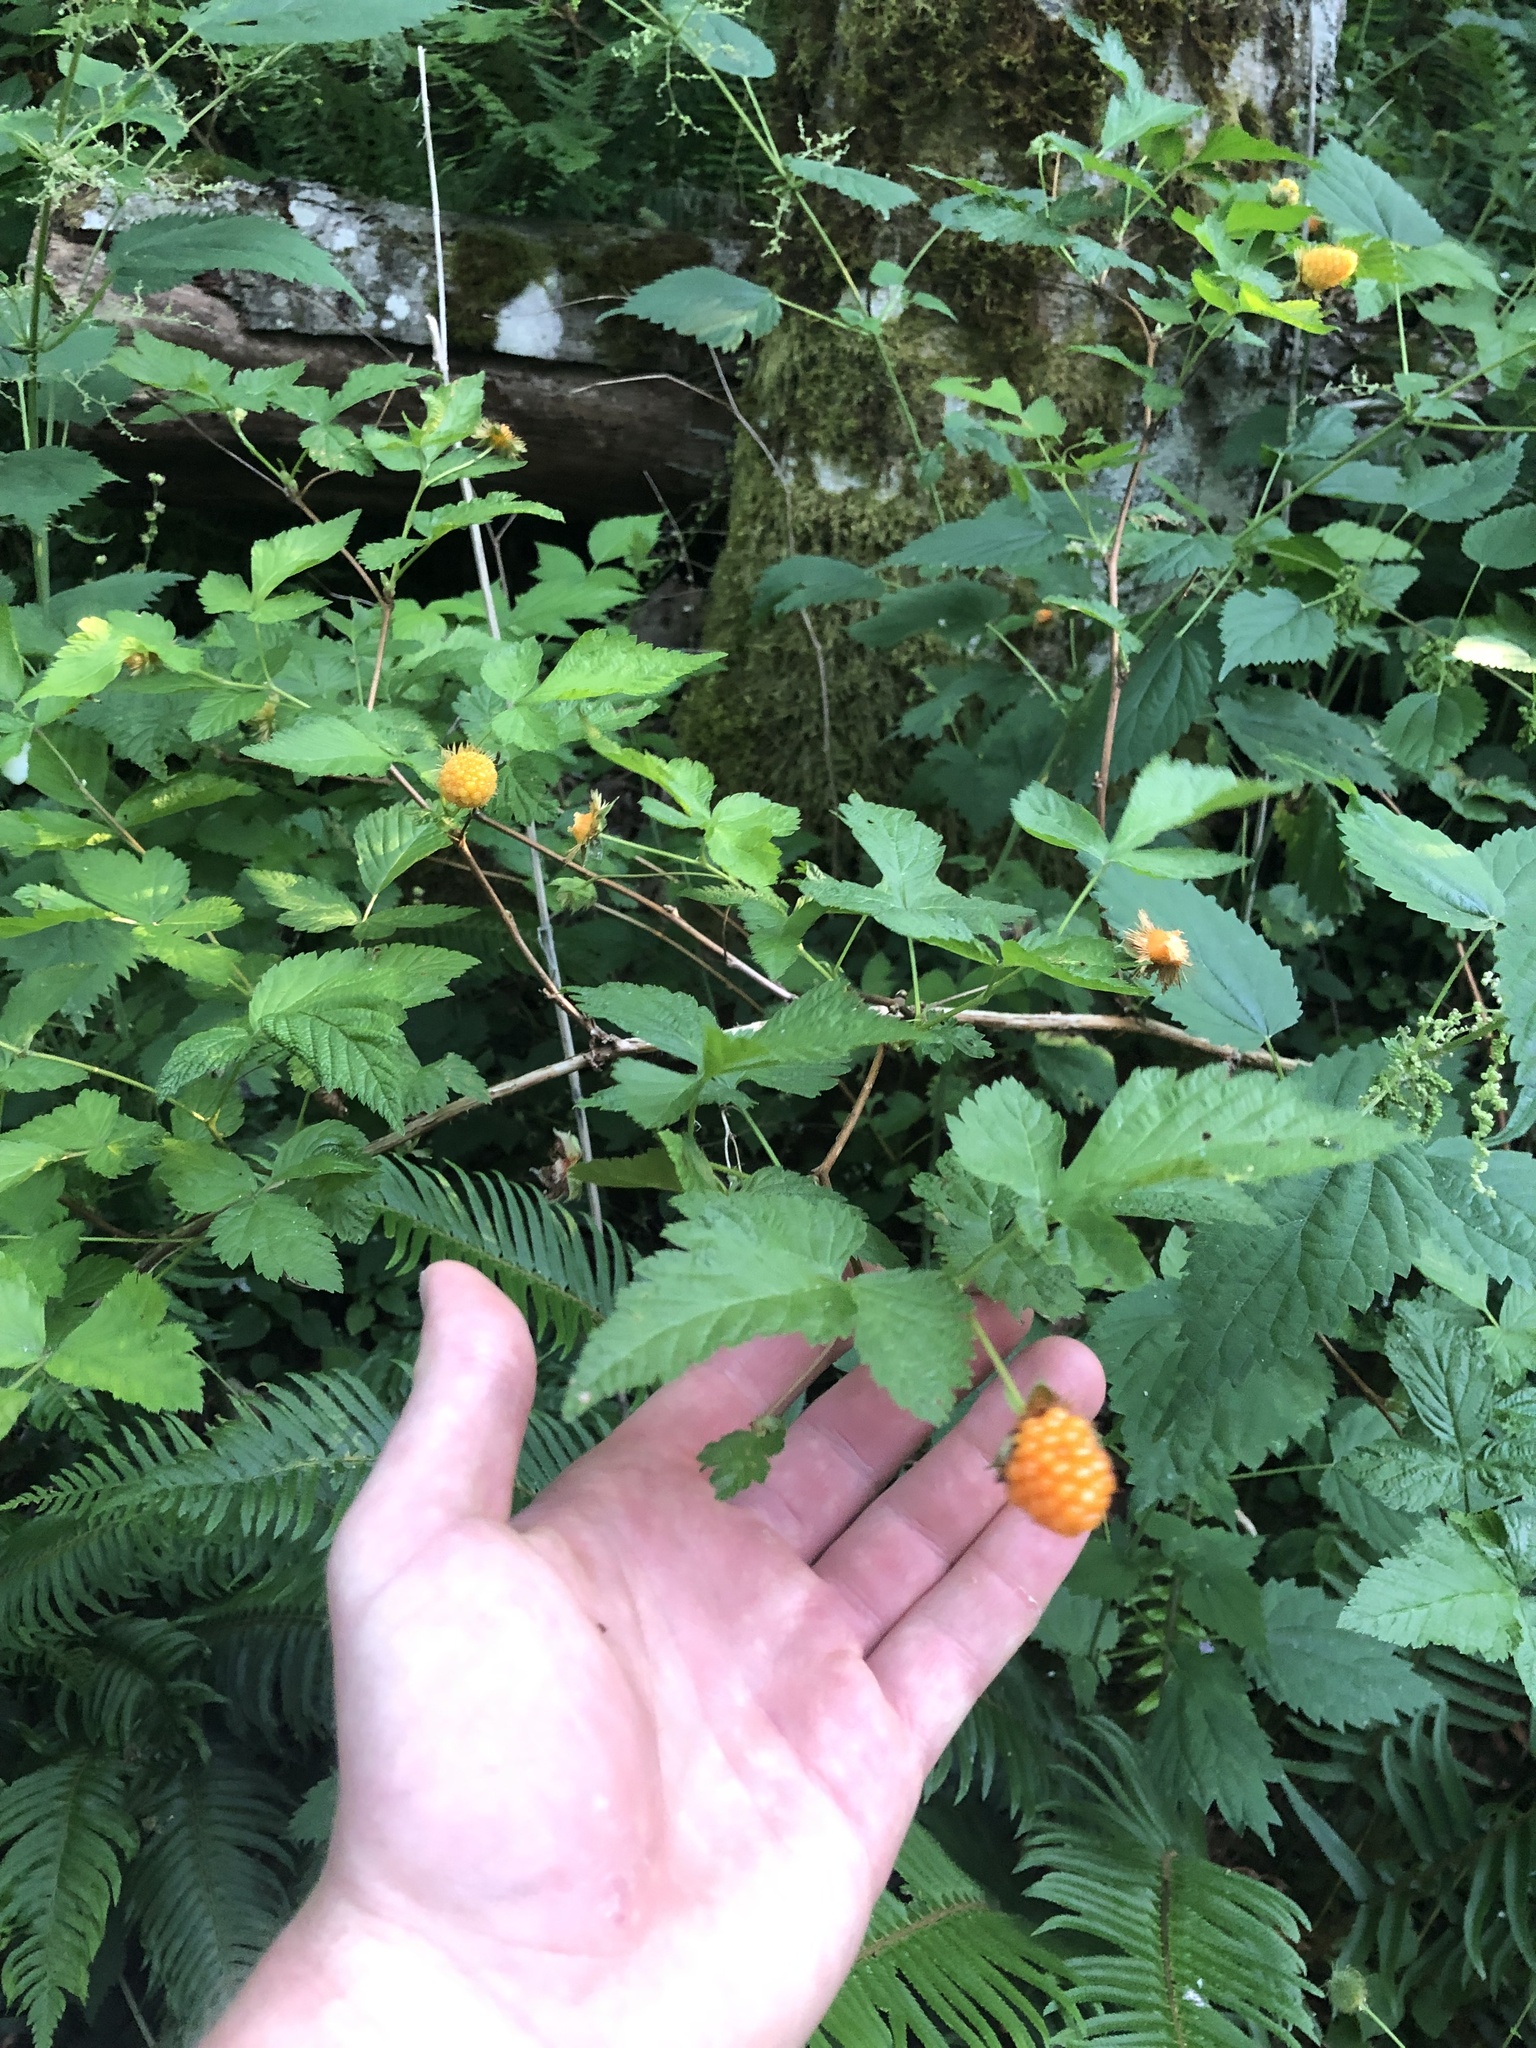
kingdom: Plantae
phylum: Tracheophyta
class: Magnoliopsida
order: Rosales
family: Rosaceae
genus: Rubus
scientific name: Rubus spectabilis
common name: Salmonberry
